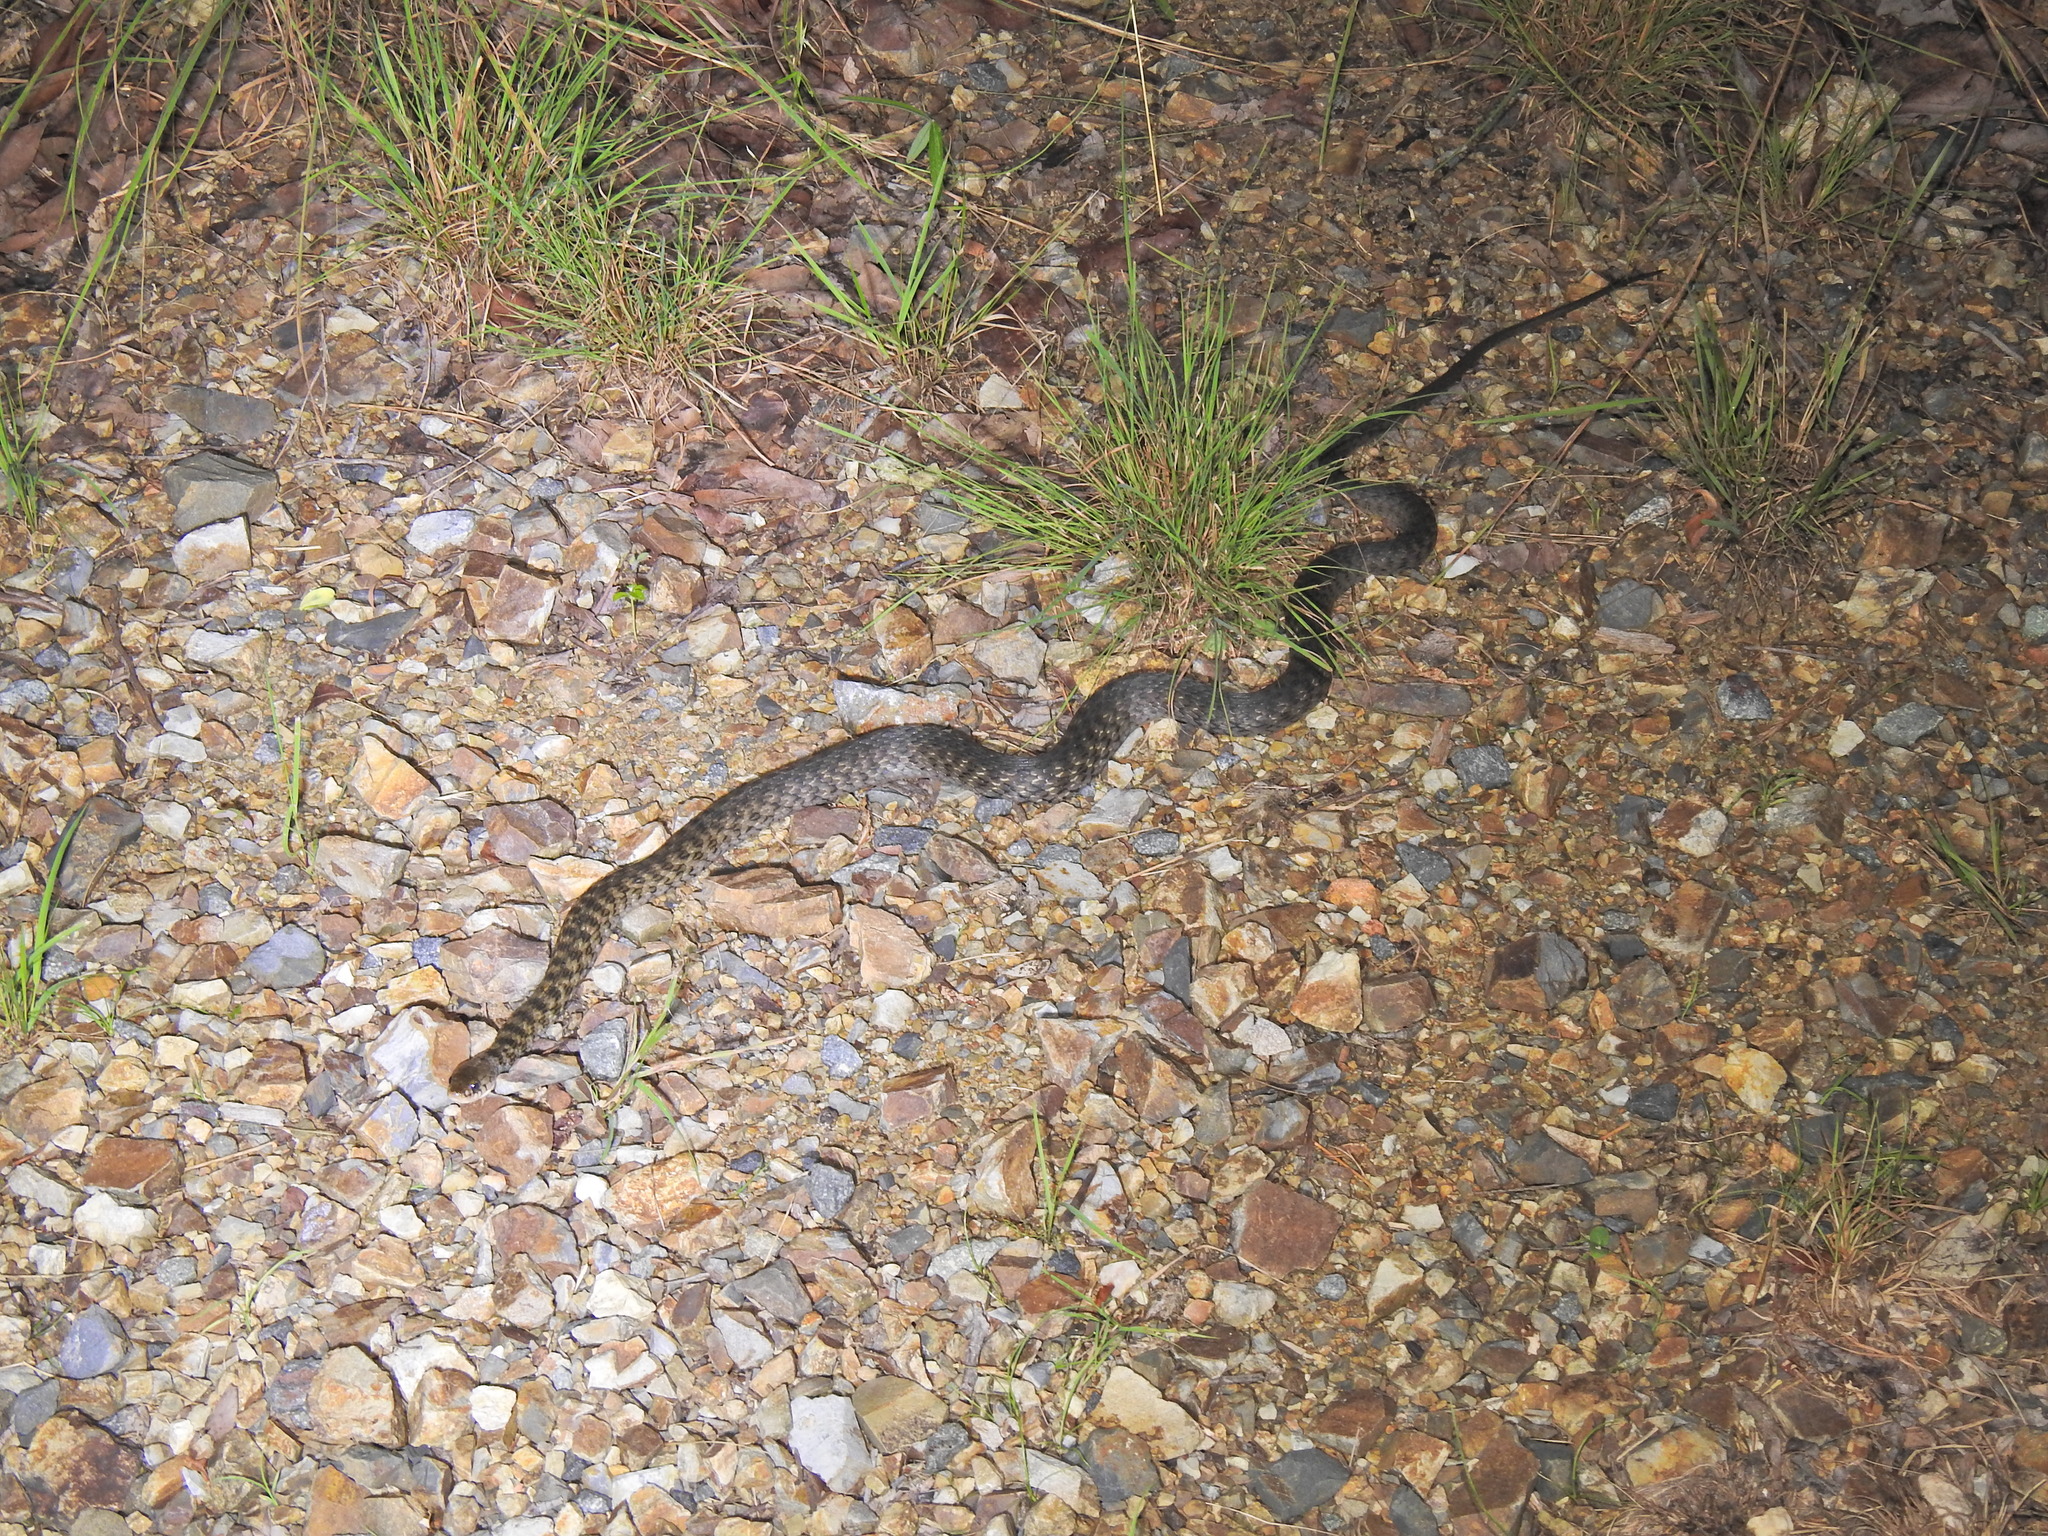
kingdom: Animalia
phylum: Chordata
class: Squamata
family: Colubridae
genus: Tropidonophis
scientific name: Tropidonophis mairii
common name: Common keelback
